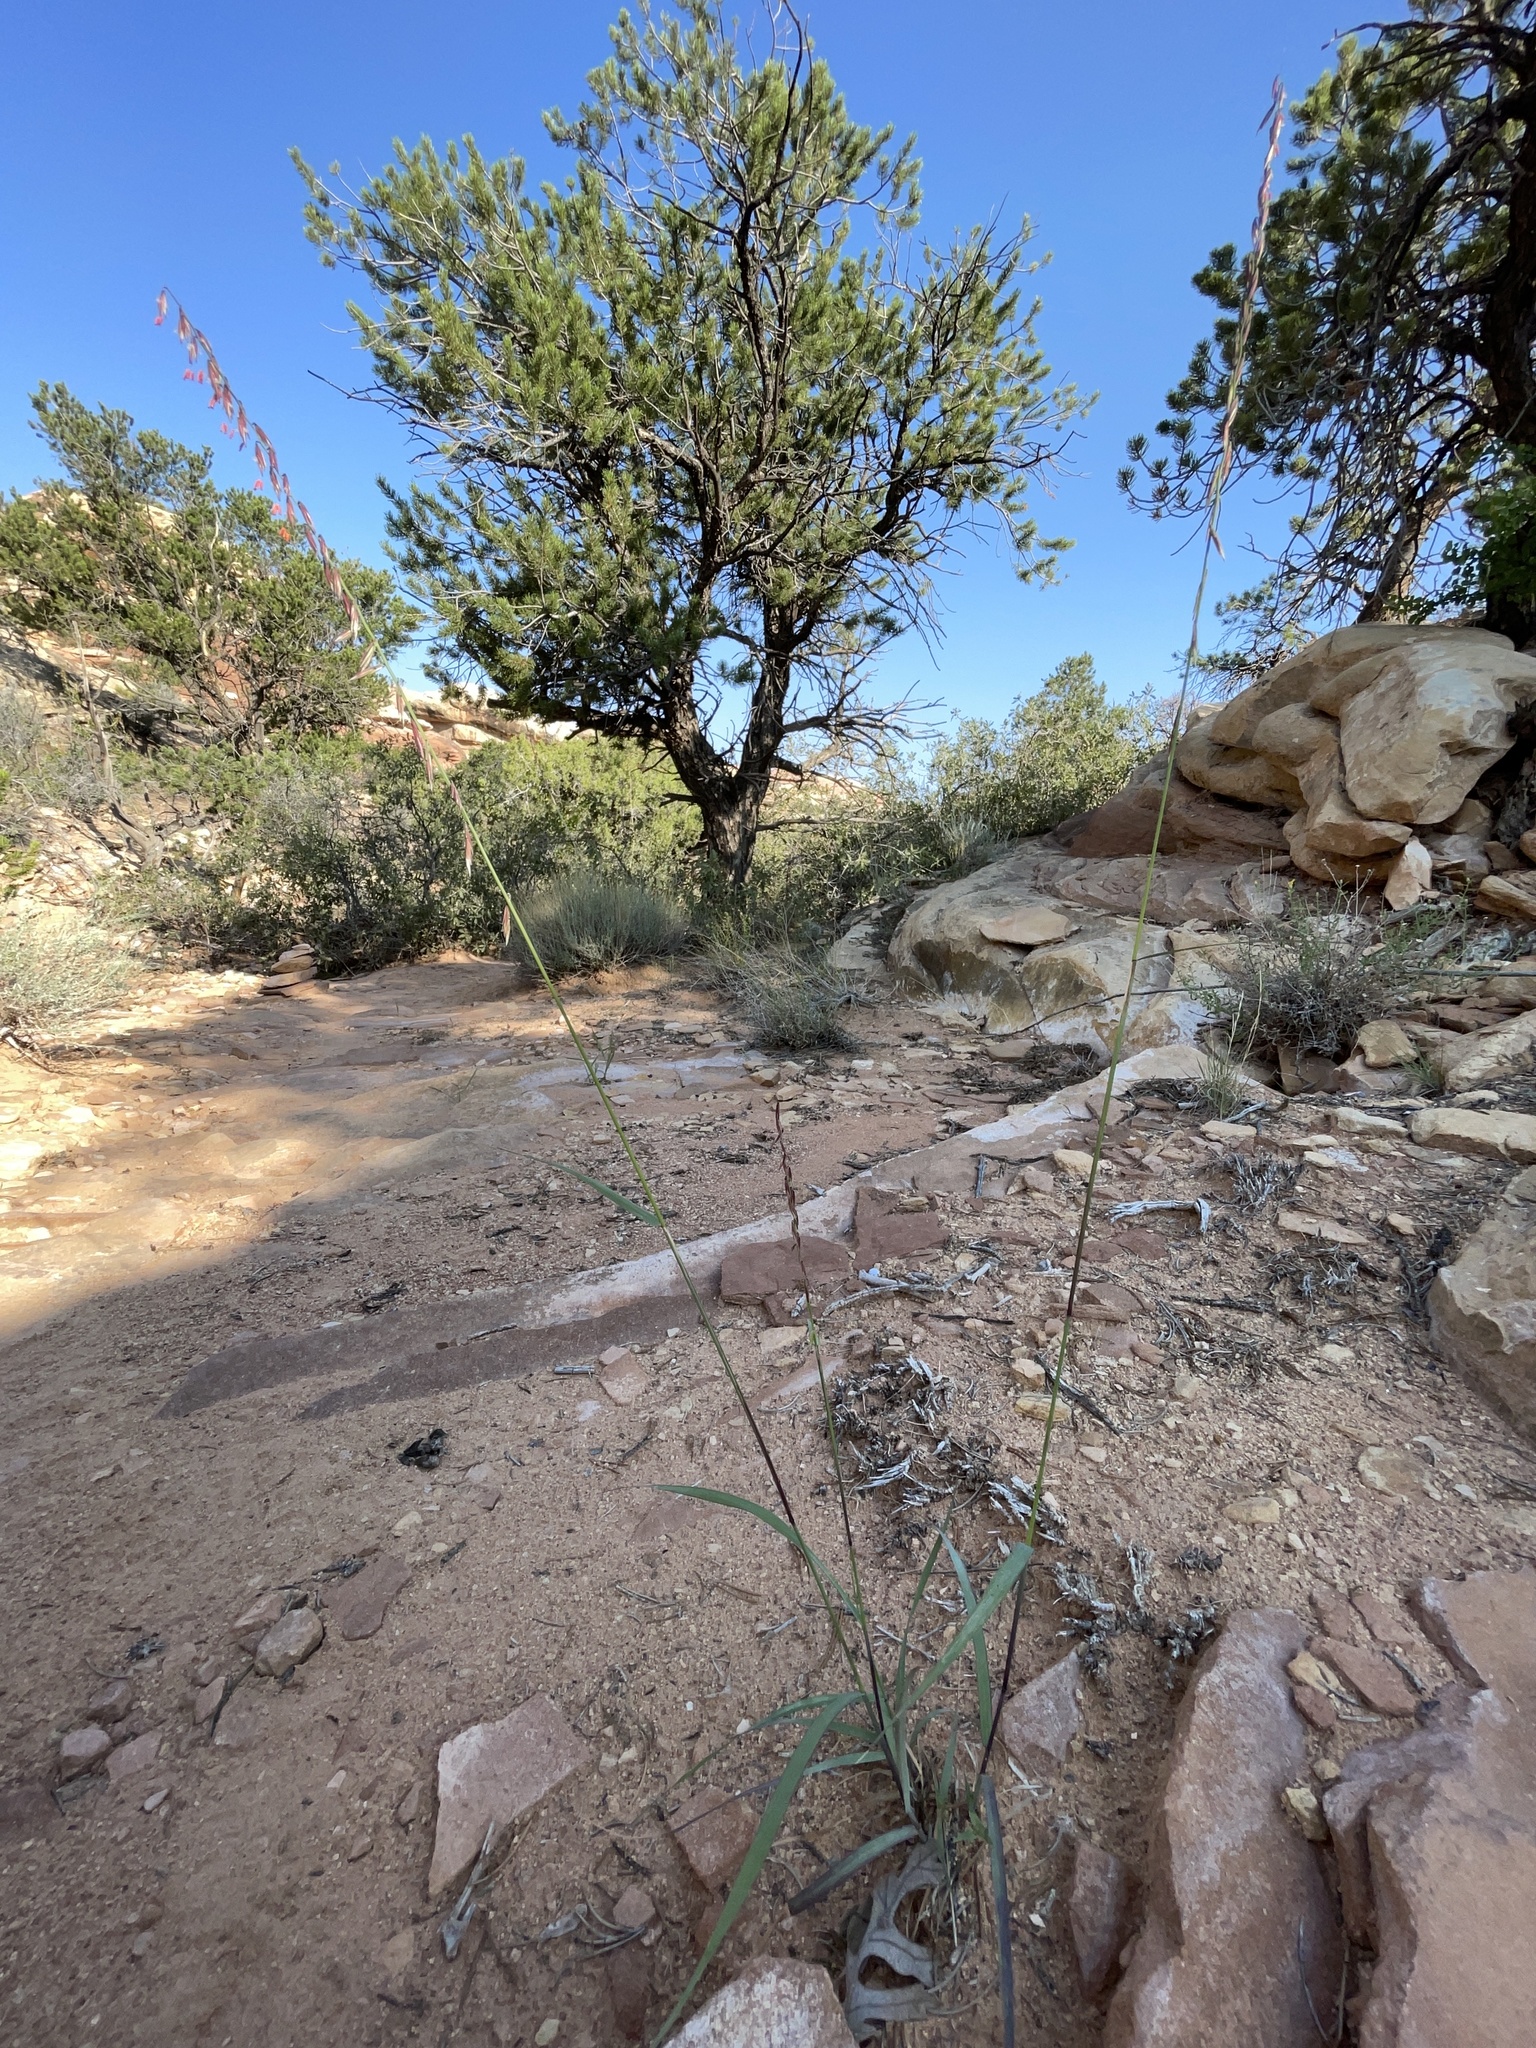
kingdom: Plantae
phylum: Tracheophyta
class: Liliopsida
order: Poales
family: Poaceae
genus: Bouteloua
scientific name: Bouteloua curtipendula
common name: Side-oats grama
